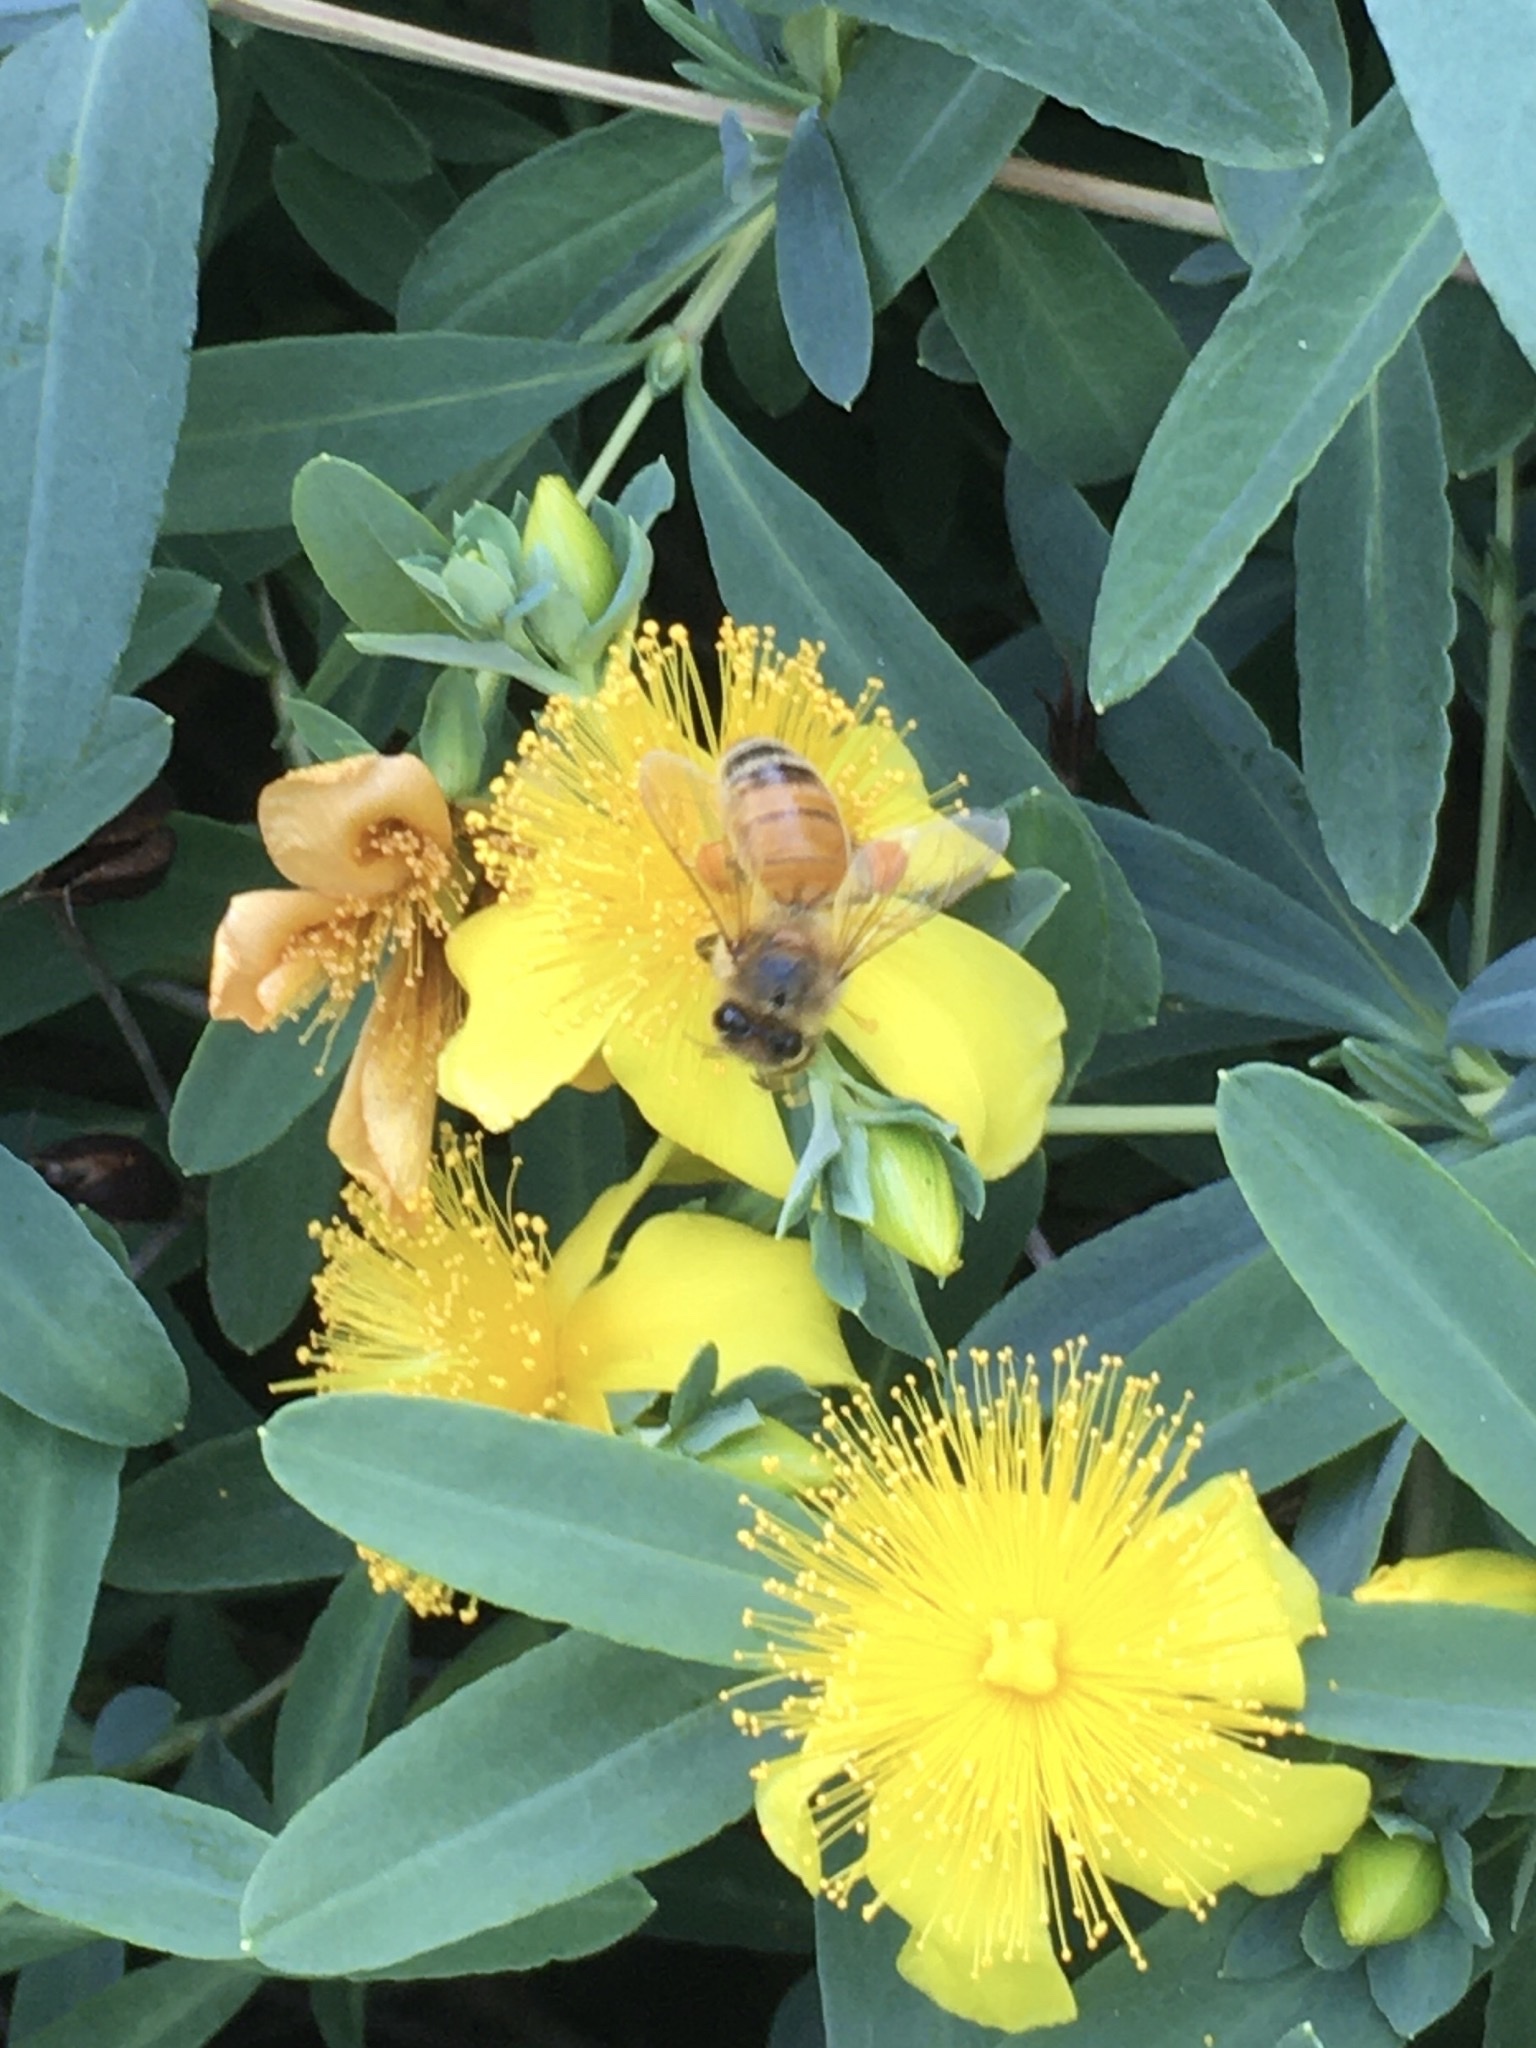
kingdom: Animalia
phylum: Arthropoda
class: Insecta
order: Hymenoptera
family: Apidae
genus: Apis
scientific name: Apis mellifera
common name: Honey bee
